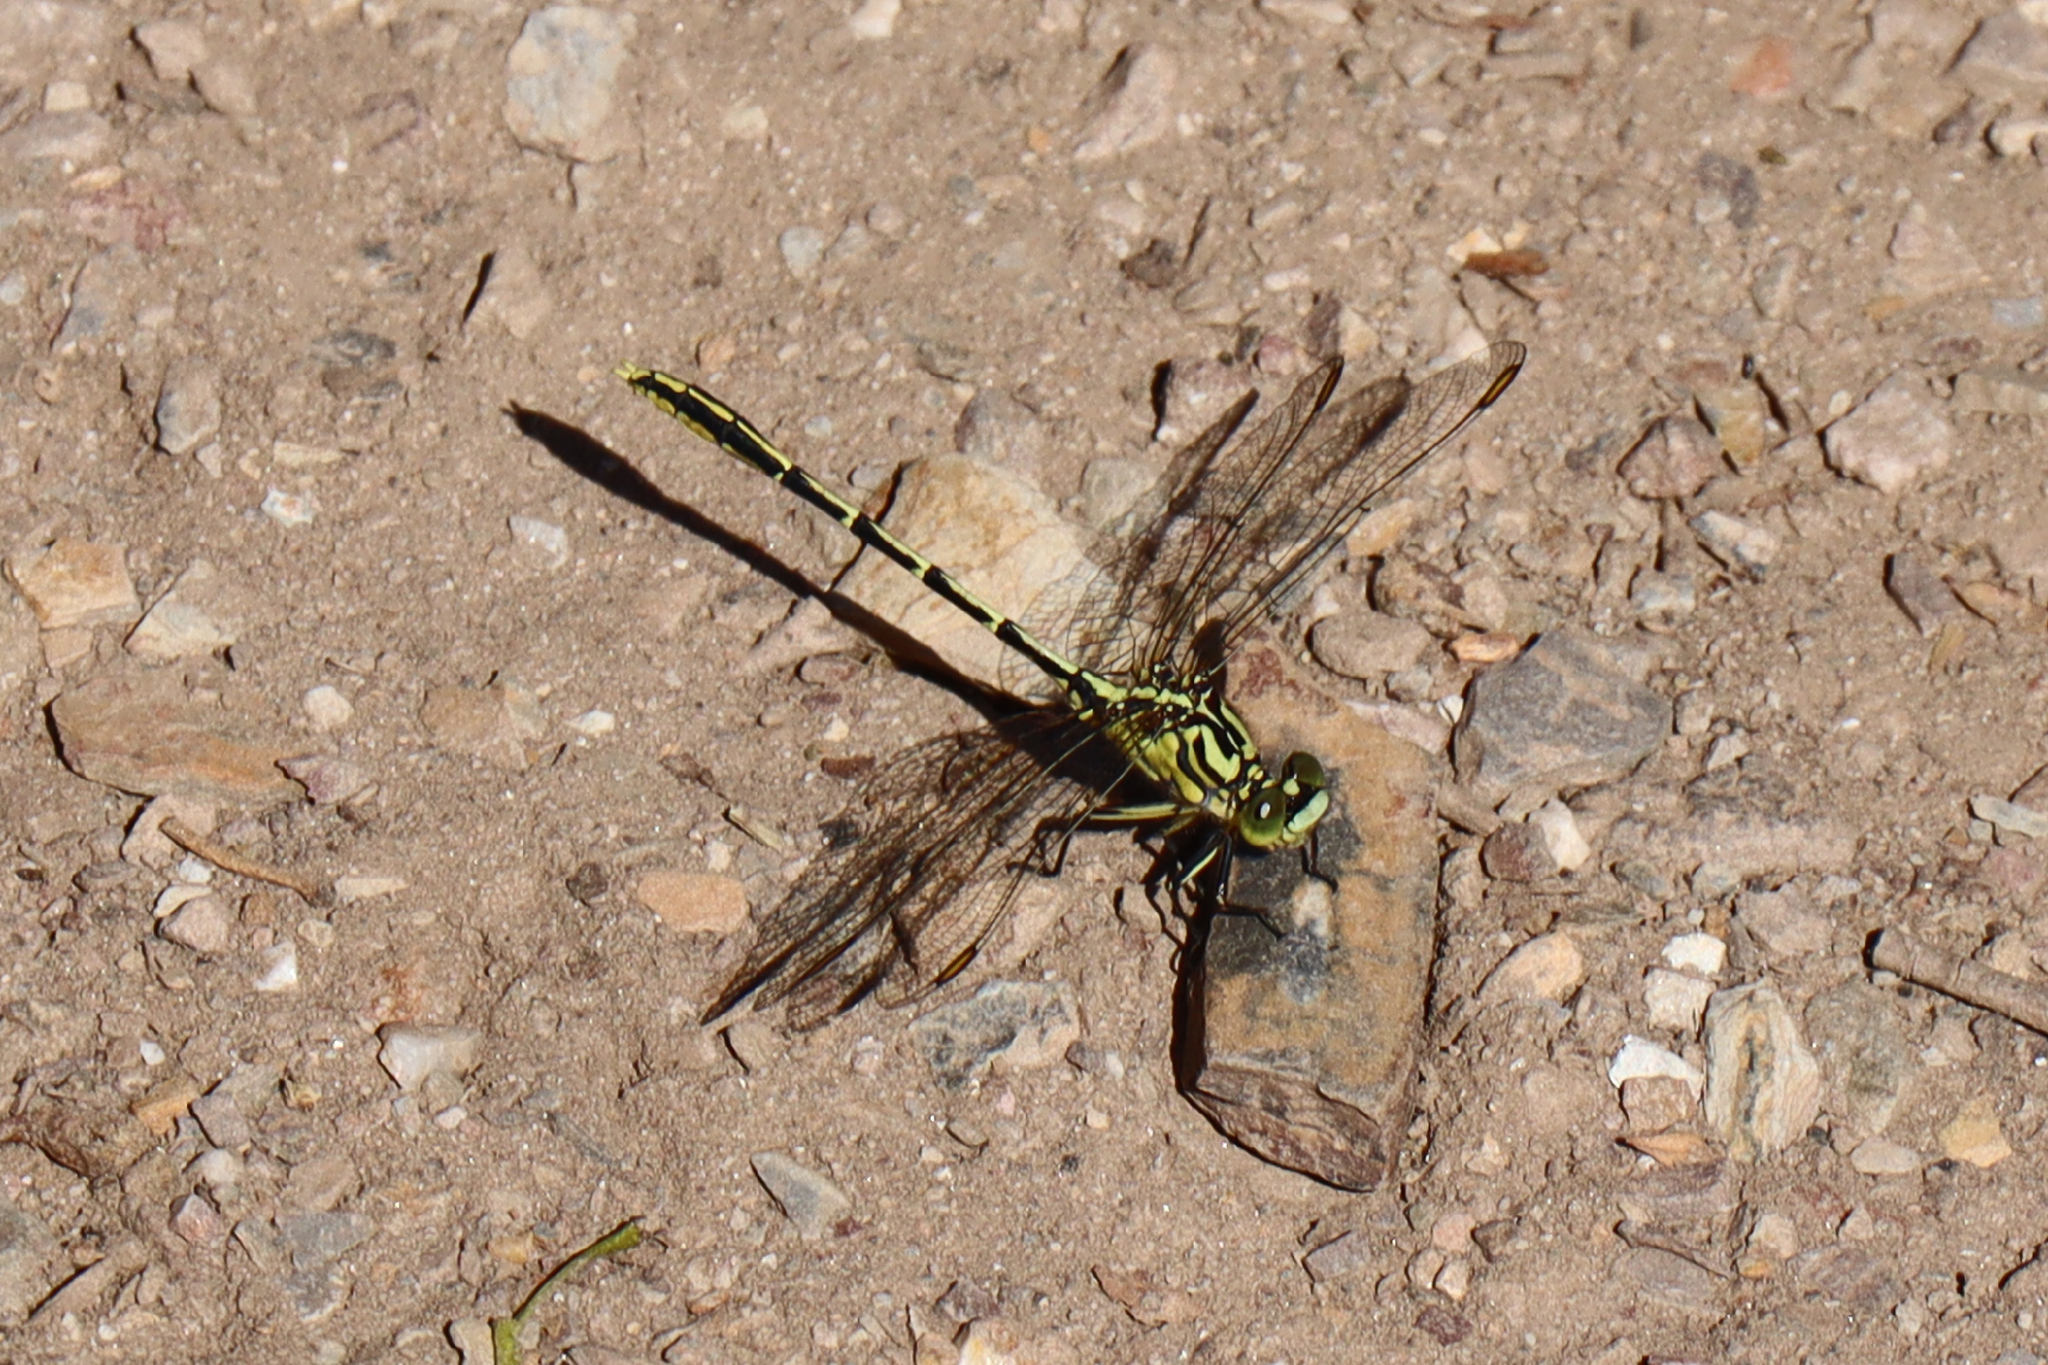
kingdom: Animalia
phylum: Arthropoda
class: Insecta
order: Odonata
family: Gomphidae
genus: Austrogomphus
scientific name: Austrogomphus guerini
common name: Yellow-striped hunter
